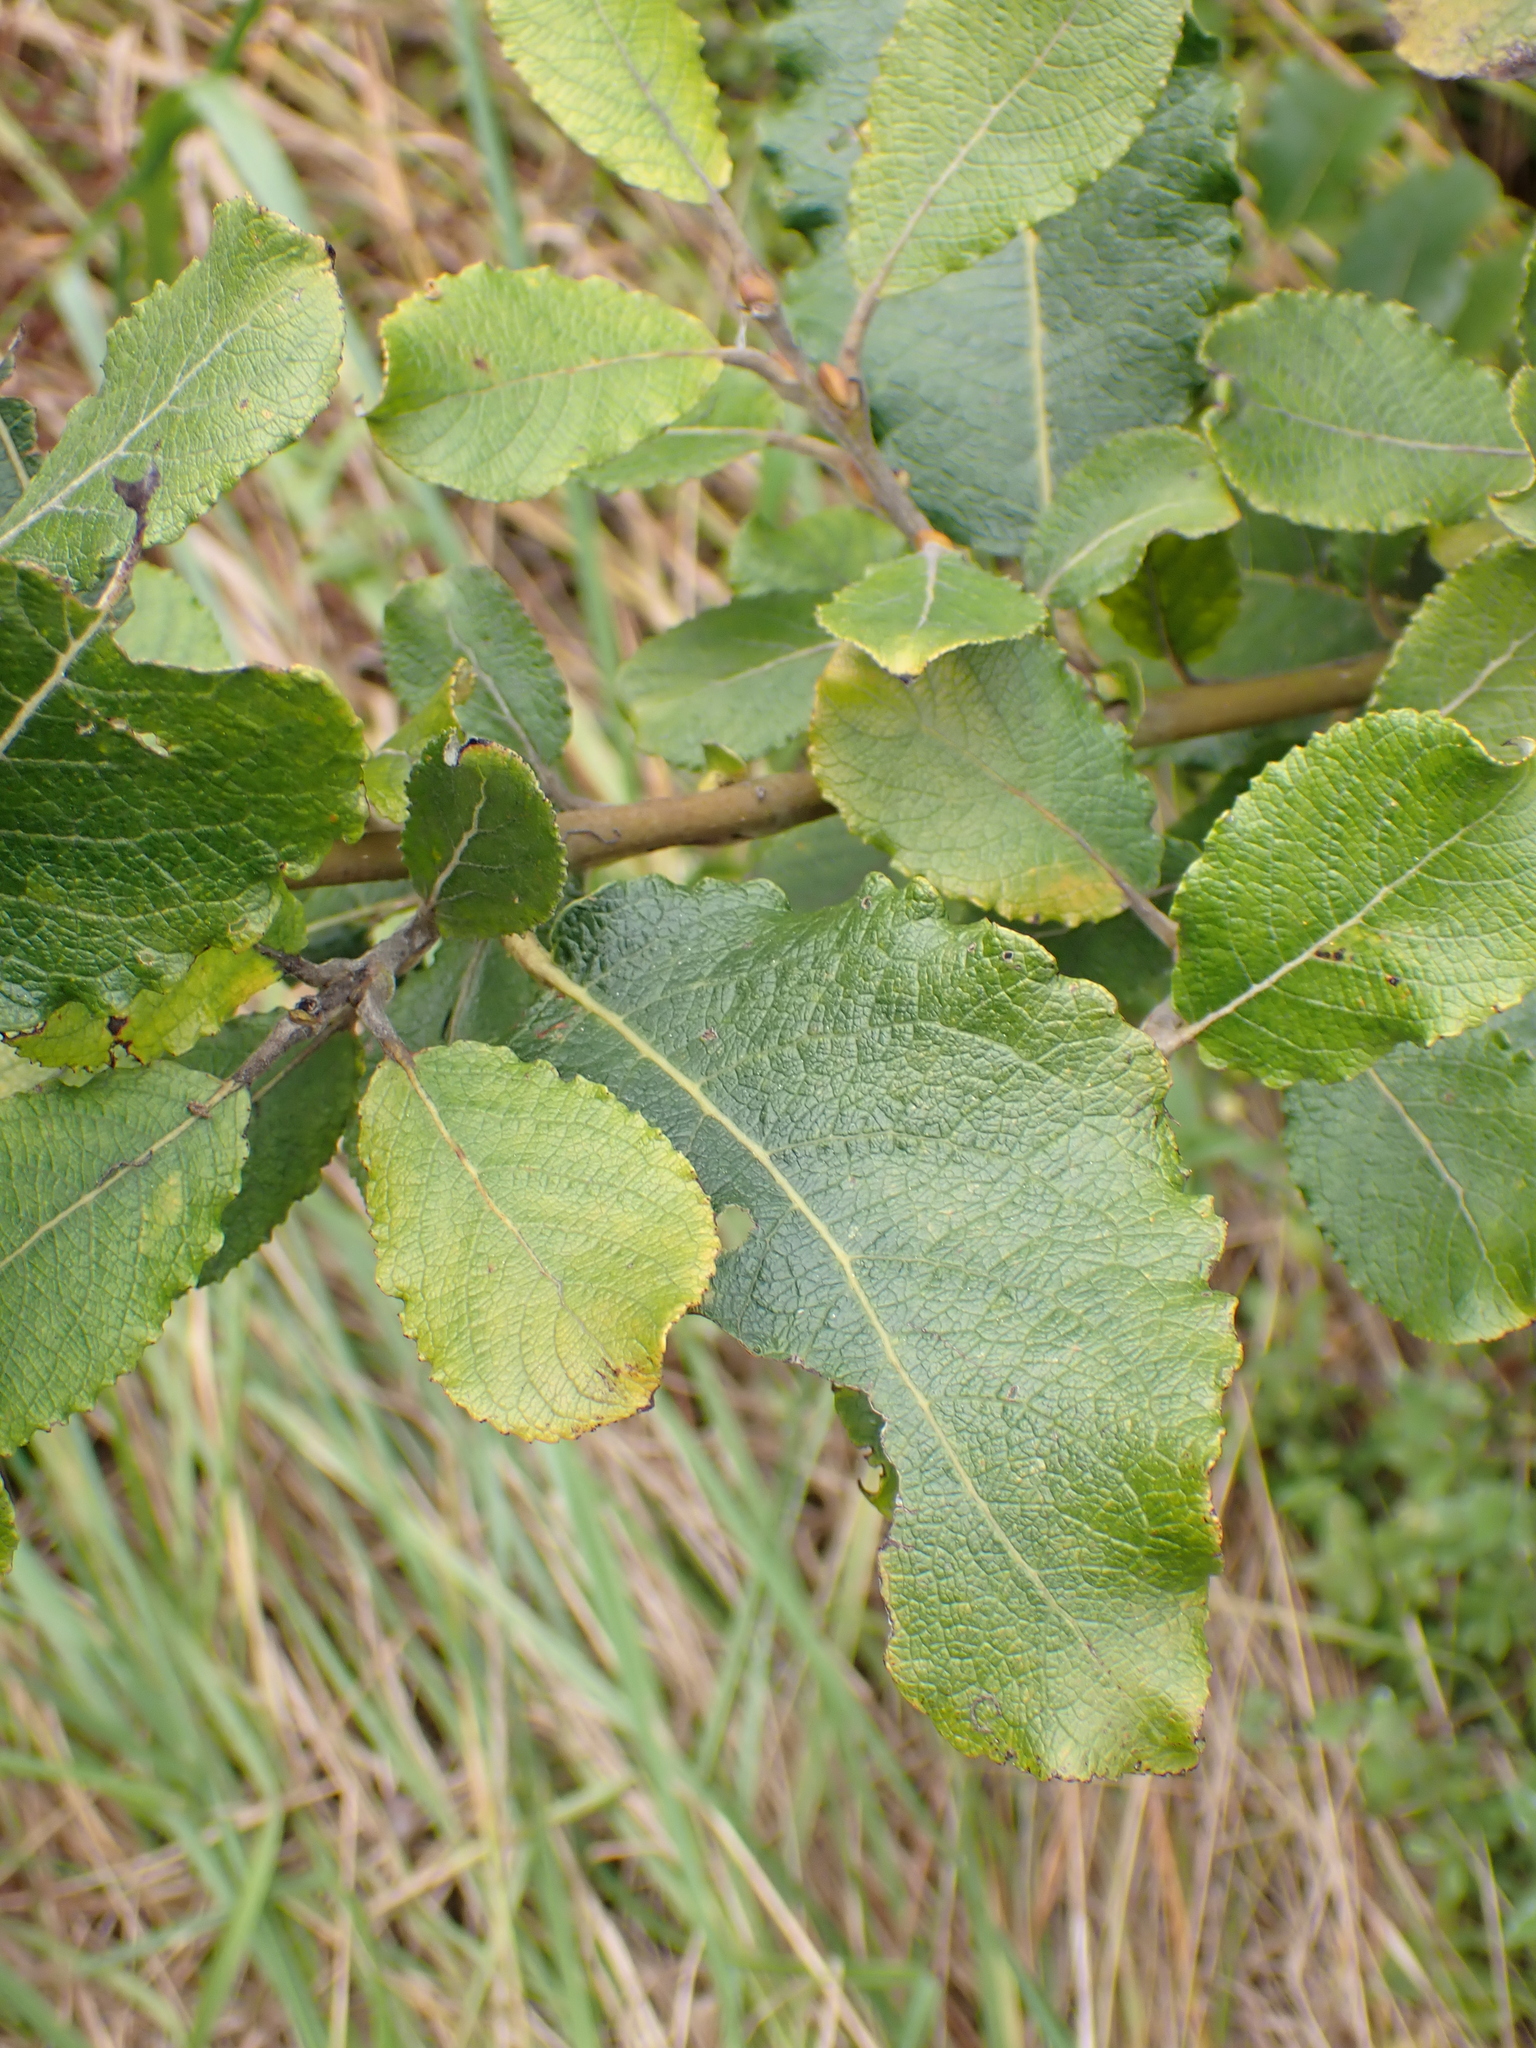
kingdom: Plantae
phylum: Tracheophyta
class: Magnoliopsida
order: Malpighiales
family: Salicaceae
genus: Salix
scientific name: Salix caprea
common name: Goat willow
